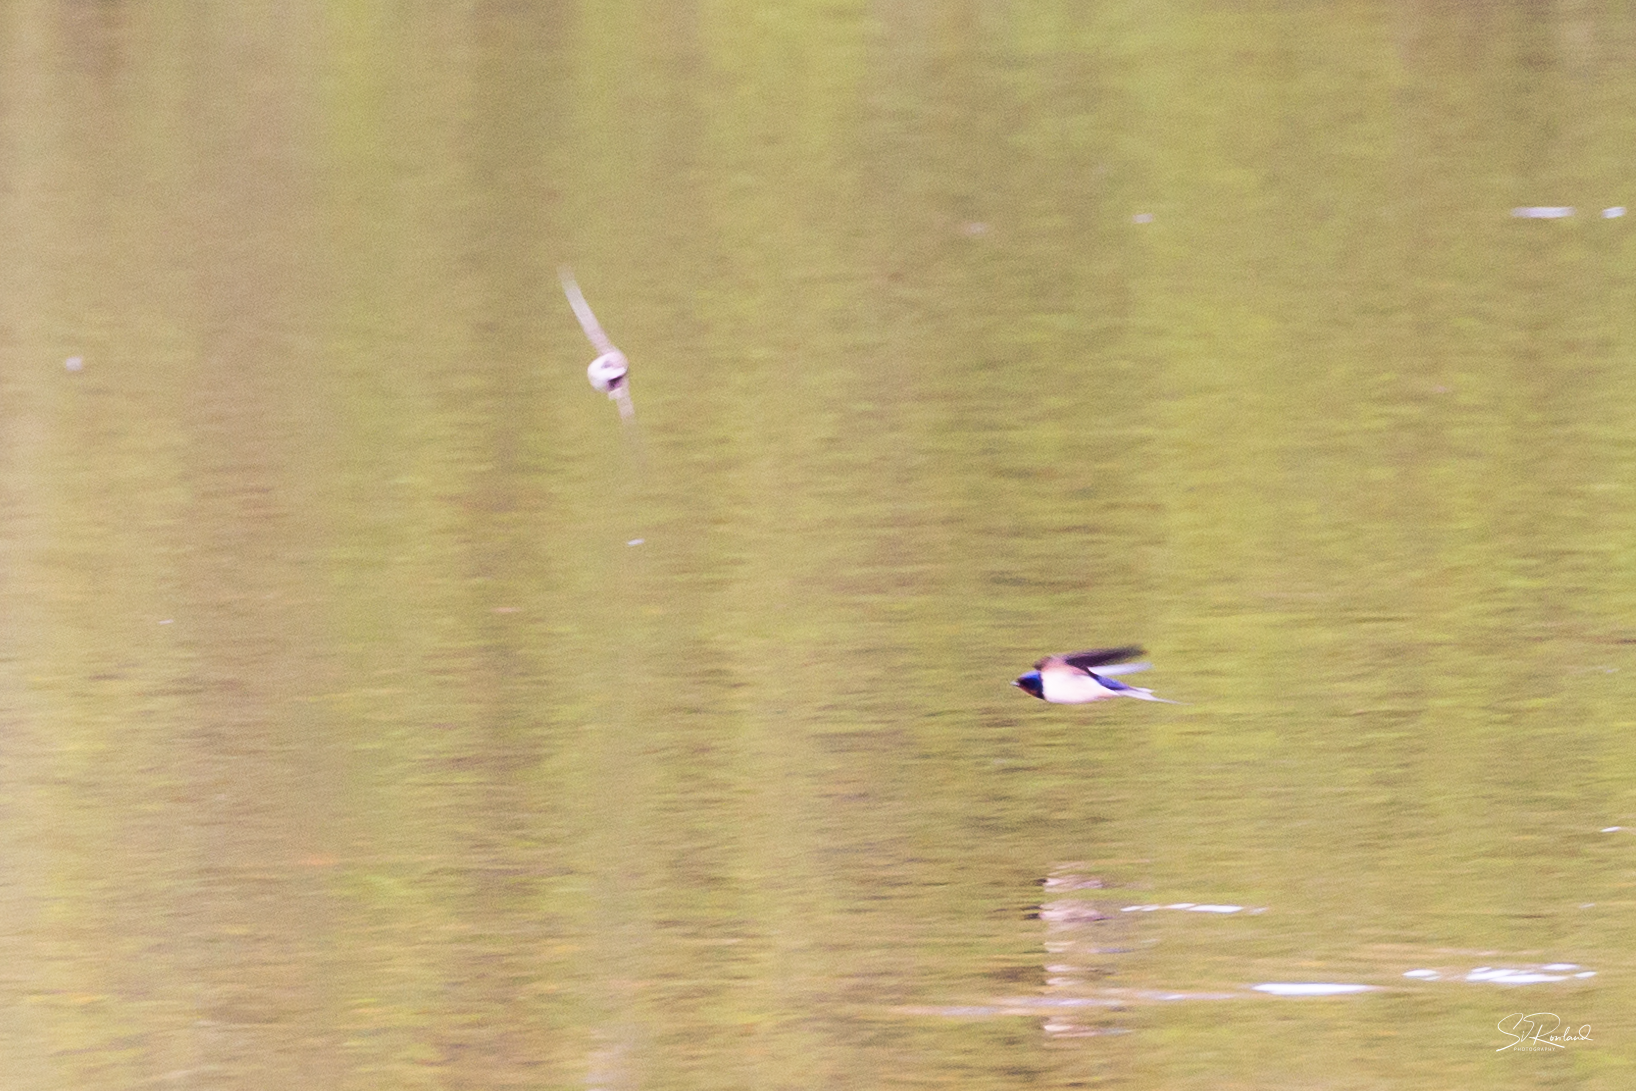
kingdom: Animalia
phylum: Chordata
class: Aves
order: Passeriformes
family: Hirundinidae
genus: Hirundo
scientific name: Hirundo rustica
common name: Barn swallow
